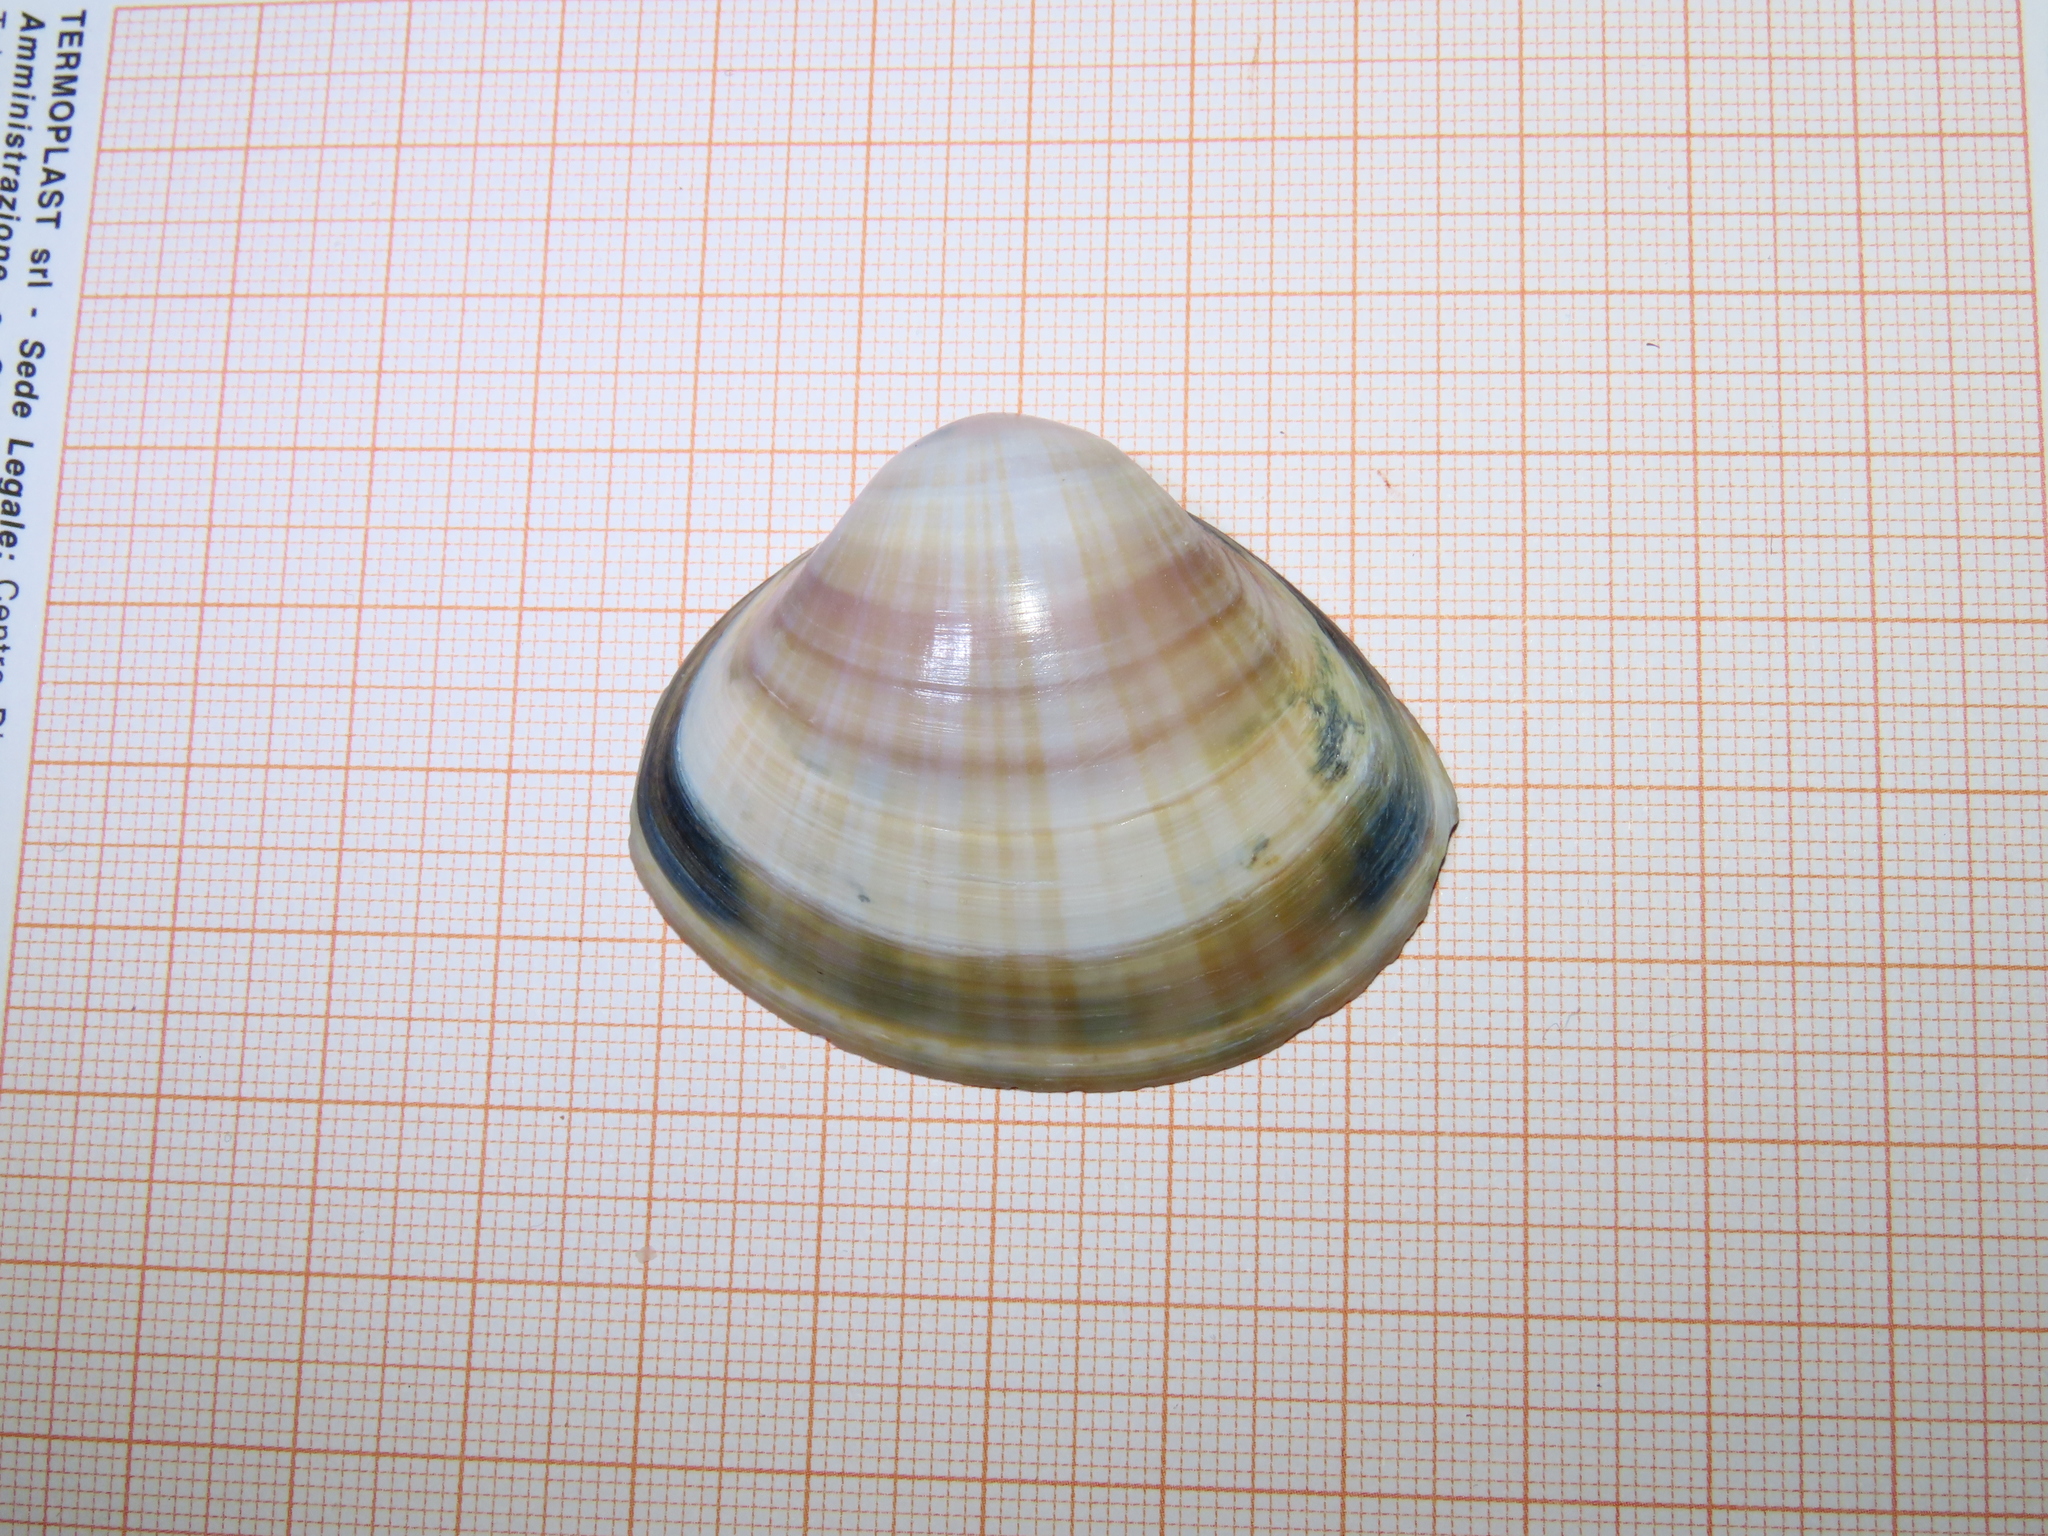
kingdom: Animalia
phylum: Mollusca
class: Bivalvia
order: Venerida
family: Mactridae
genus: Mactra
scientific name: Mactra stultorum
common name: Rayed trough shell
